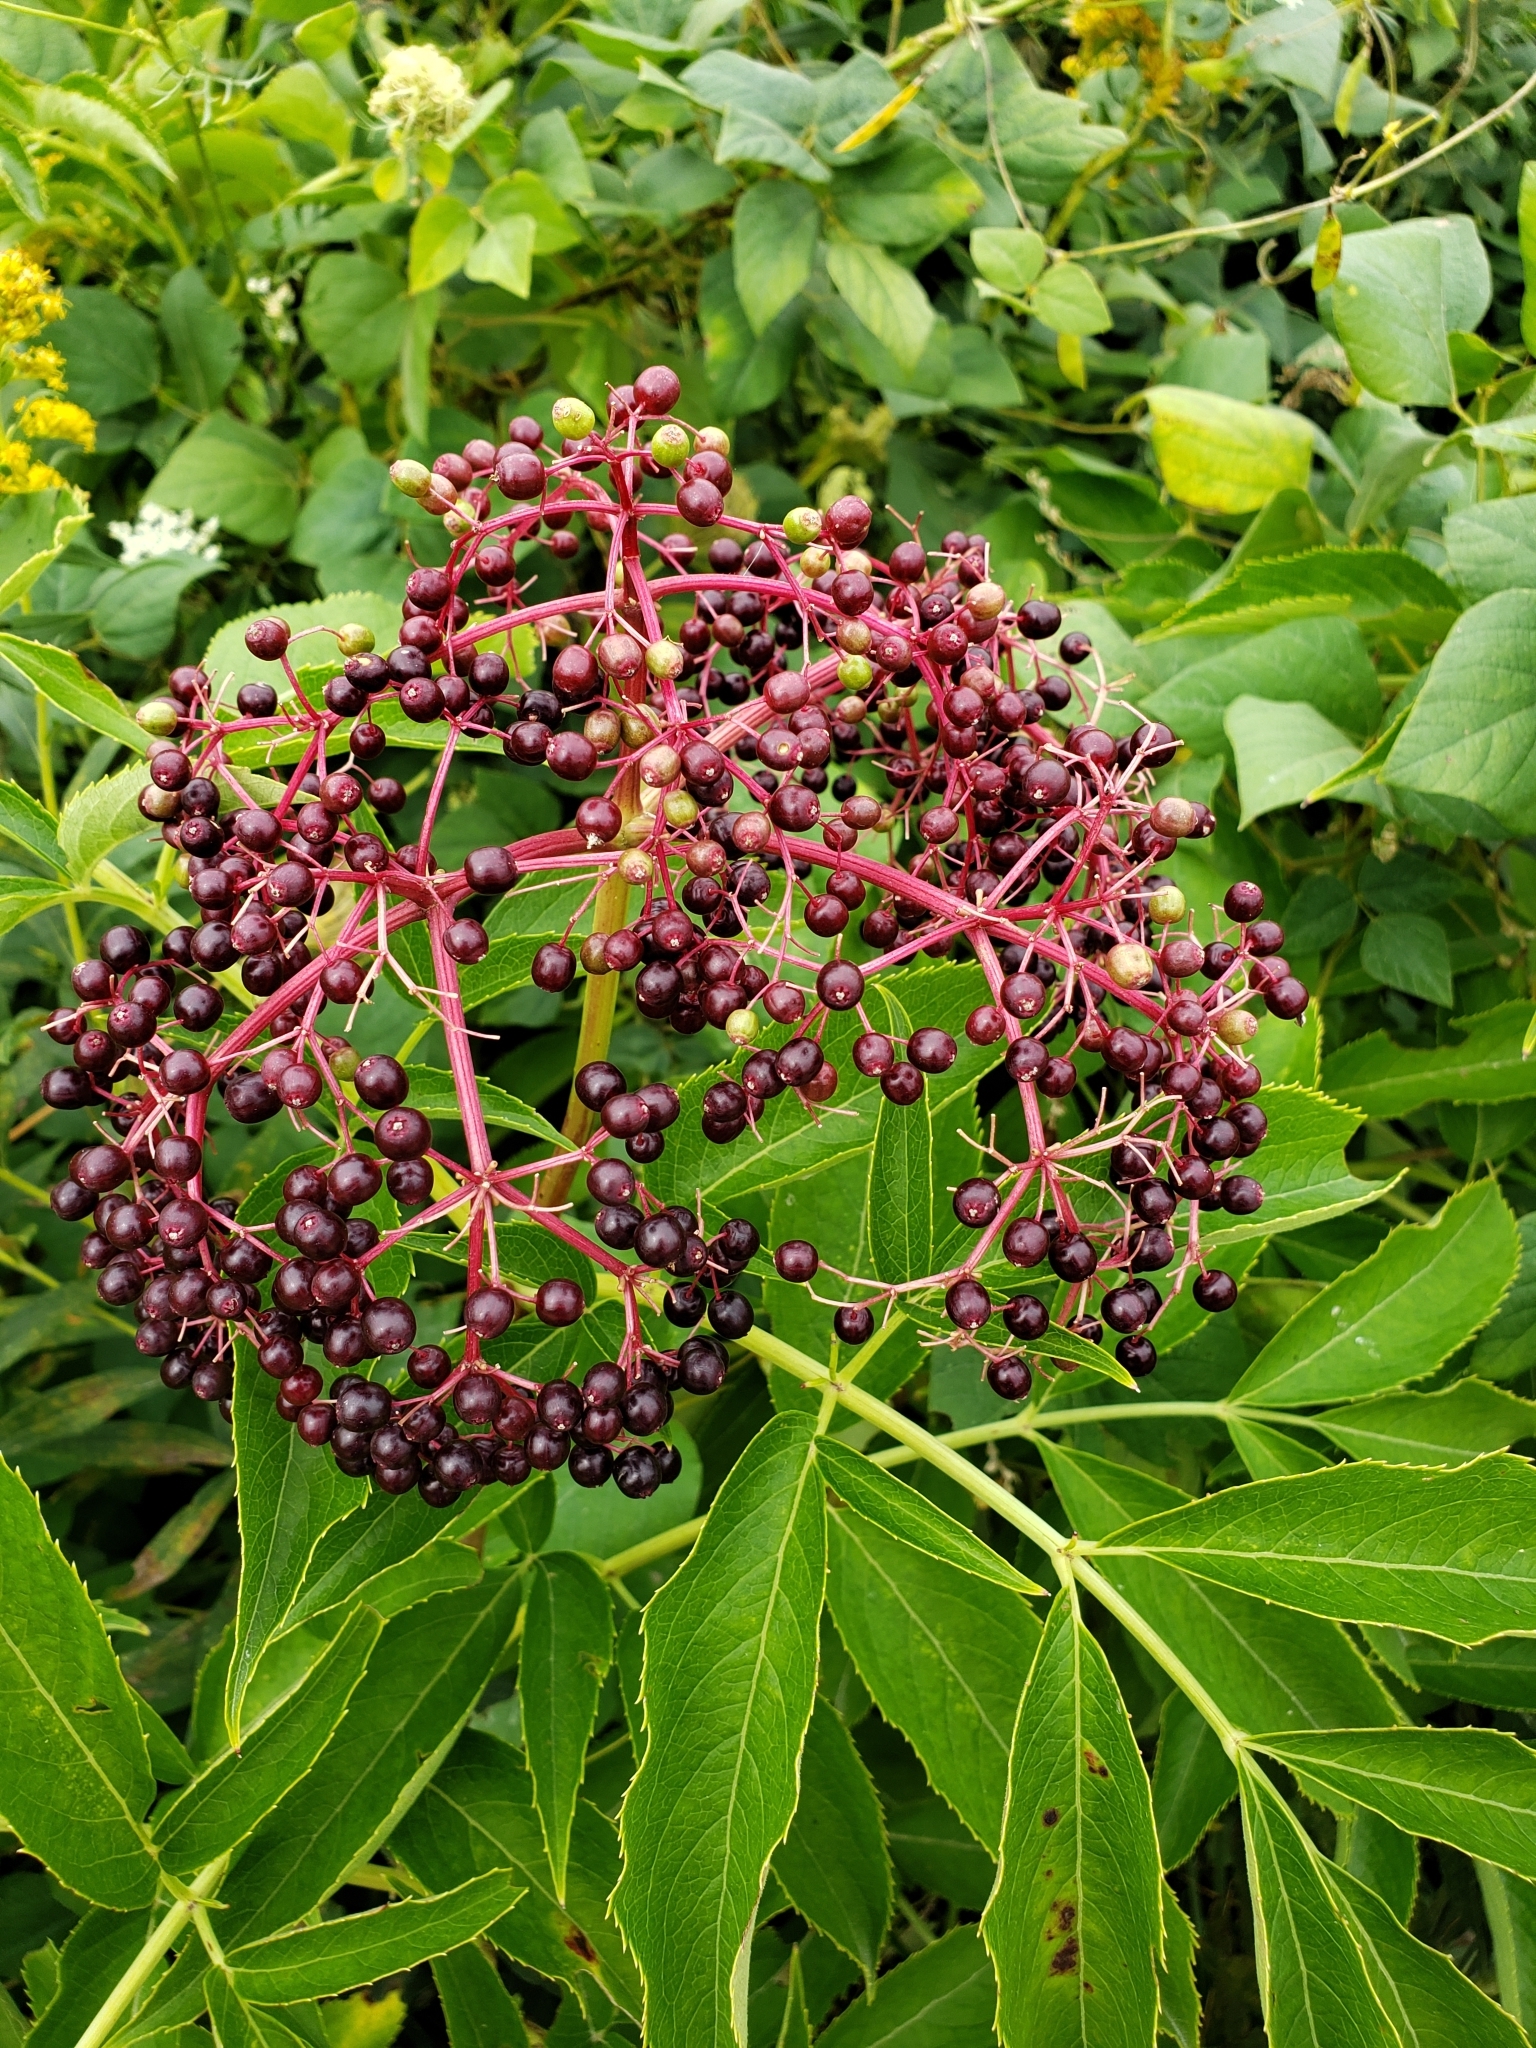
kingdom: Plantae
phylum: Tracheophyta
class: Magnoliopsida
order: Dipsacales
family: Viburnaceae
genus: Sambucus
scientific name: Sambucus canadensis
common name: American elder
